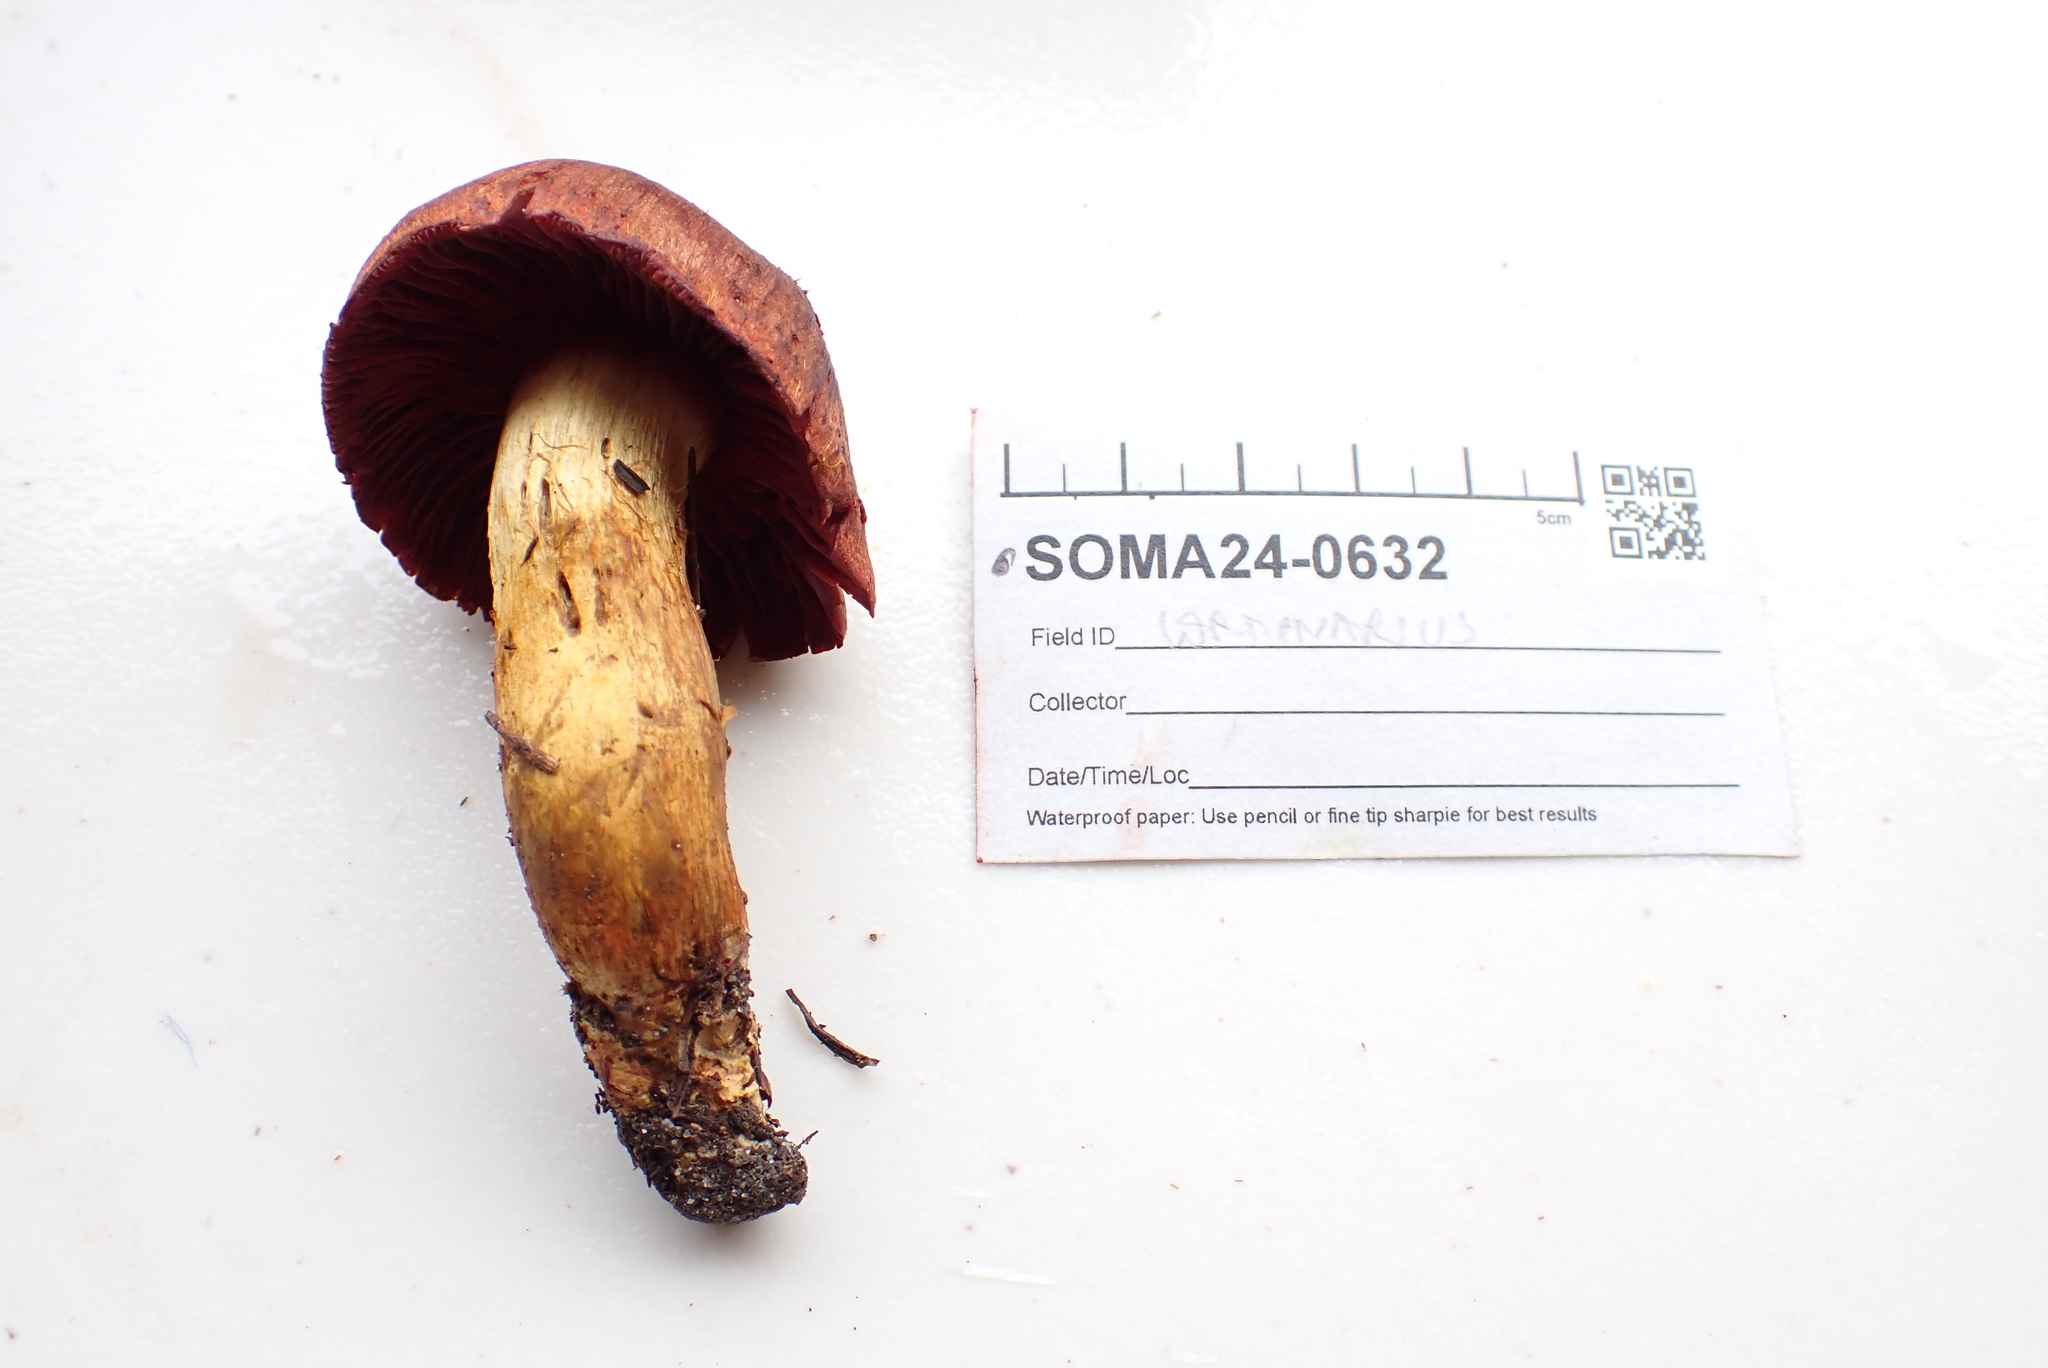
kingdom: Fungi
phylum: Basidiomycota
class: Agaricomycetes
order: Agaricales
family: Cortinariaceae
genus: Cortinarius
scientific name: Cortinarius purpureus
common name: Imperial webcap
